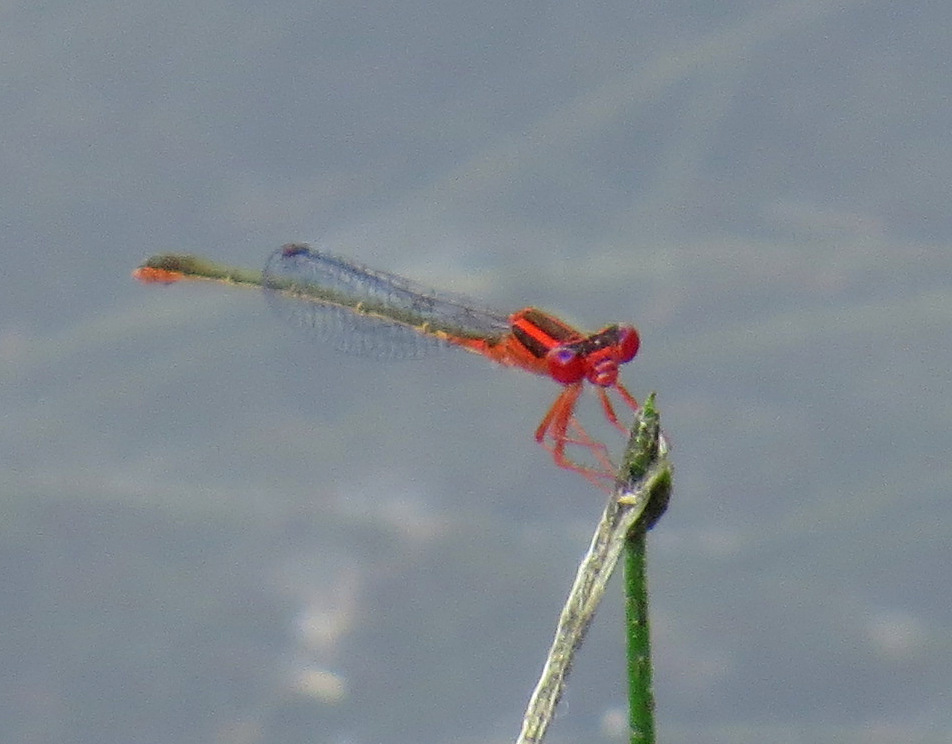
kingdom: Animalia
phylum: Arthropoda
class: Insecta
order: Odonata
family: Coenagrionidae
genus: Enallagma
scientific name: Enallagma pictum
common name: Scarlet bluet
